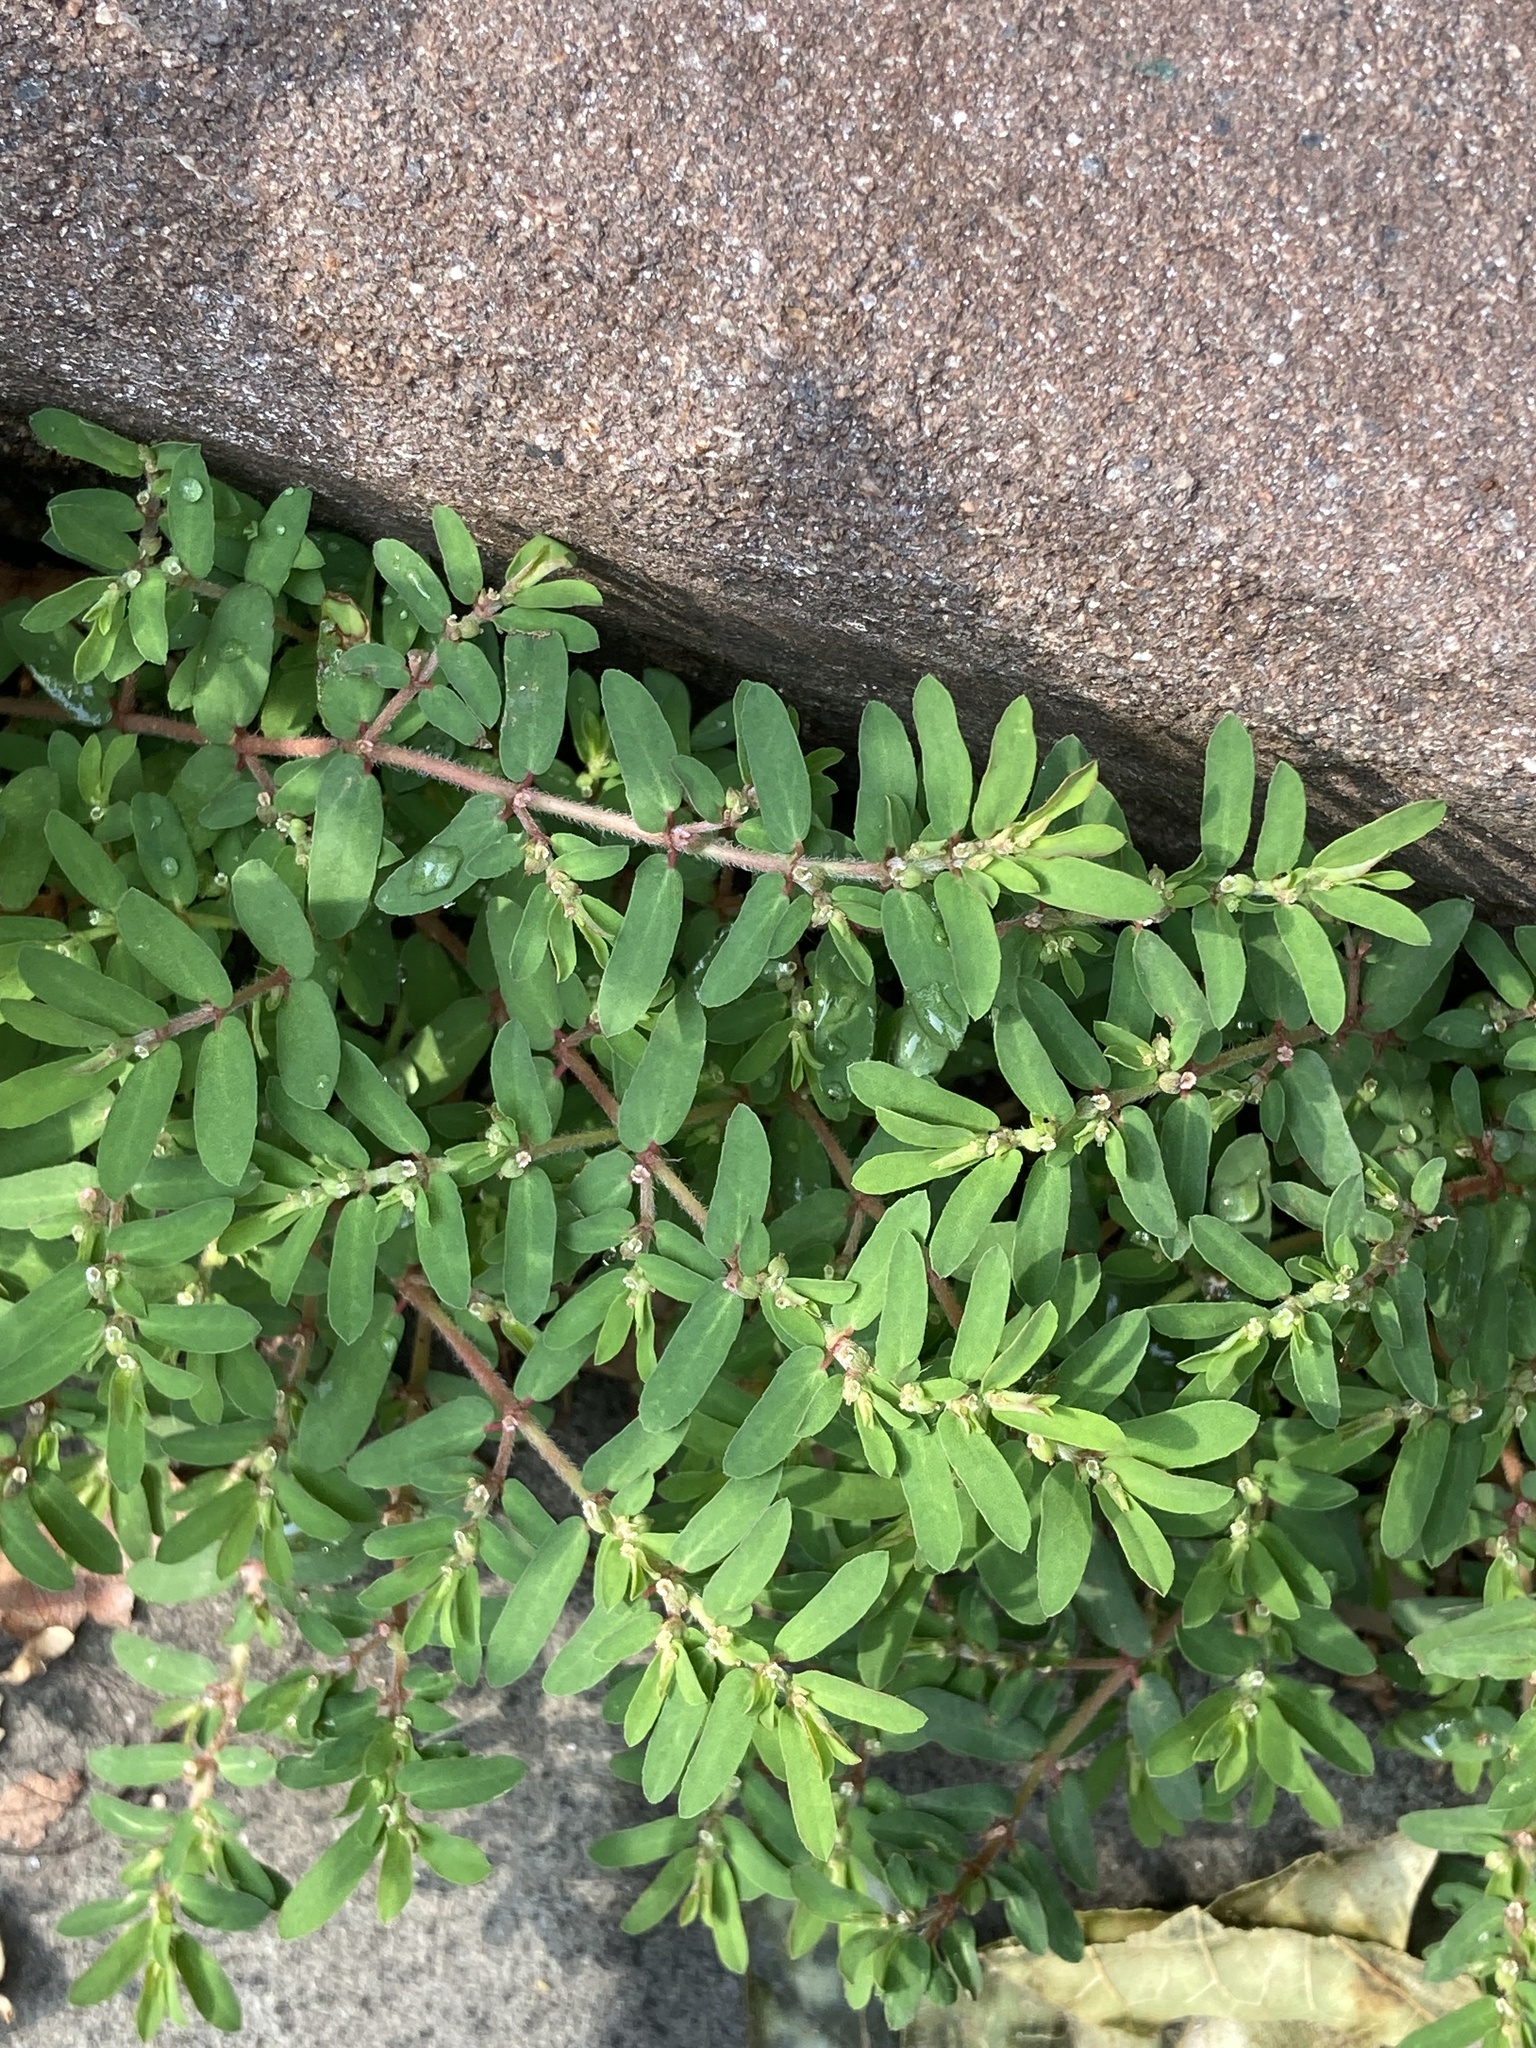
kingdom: Plantae
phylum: Tracheophyta
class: Magnoliopsida
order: Malpighiales
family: Euphorbiaceae
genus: Euphorbia
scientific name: Euphorbia maculata
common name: Spotted spurge
